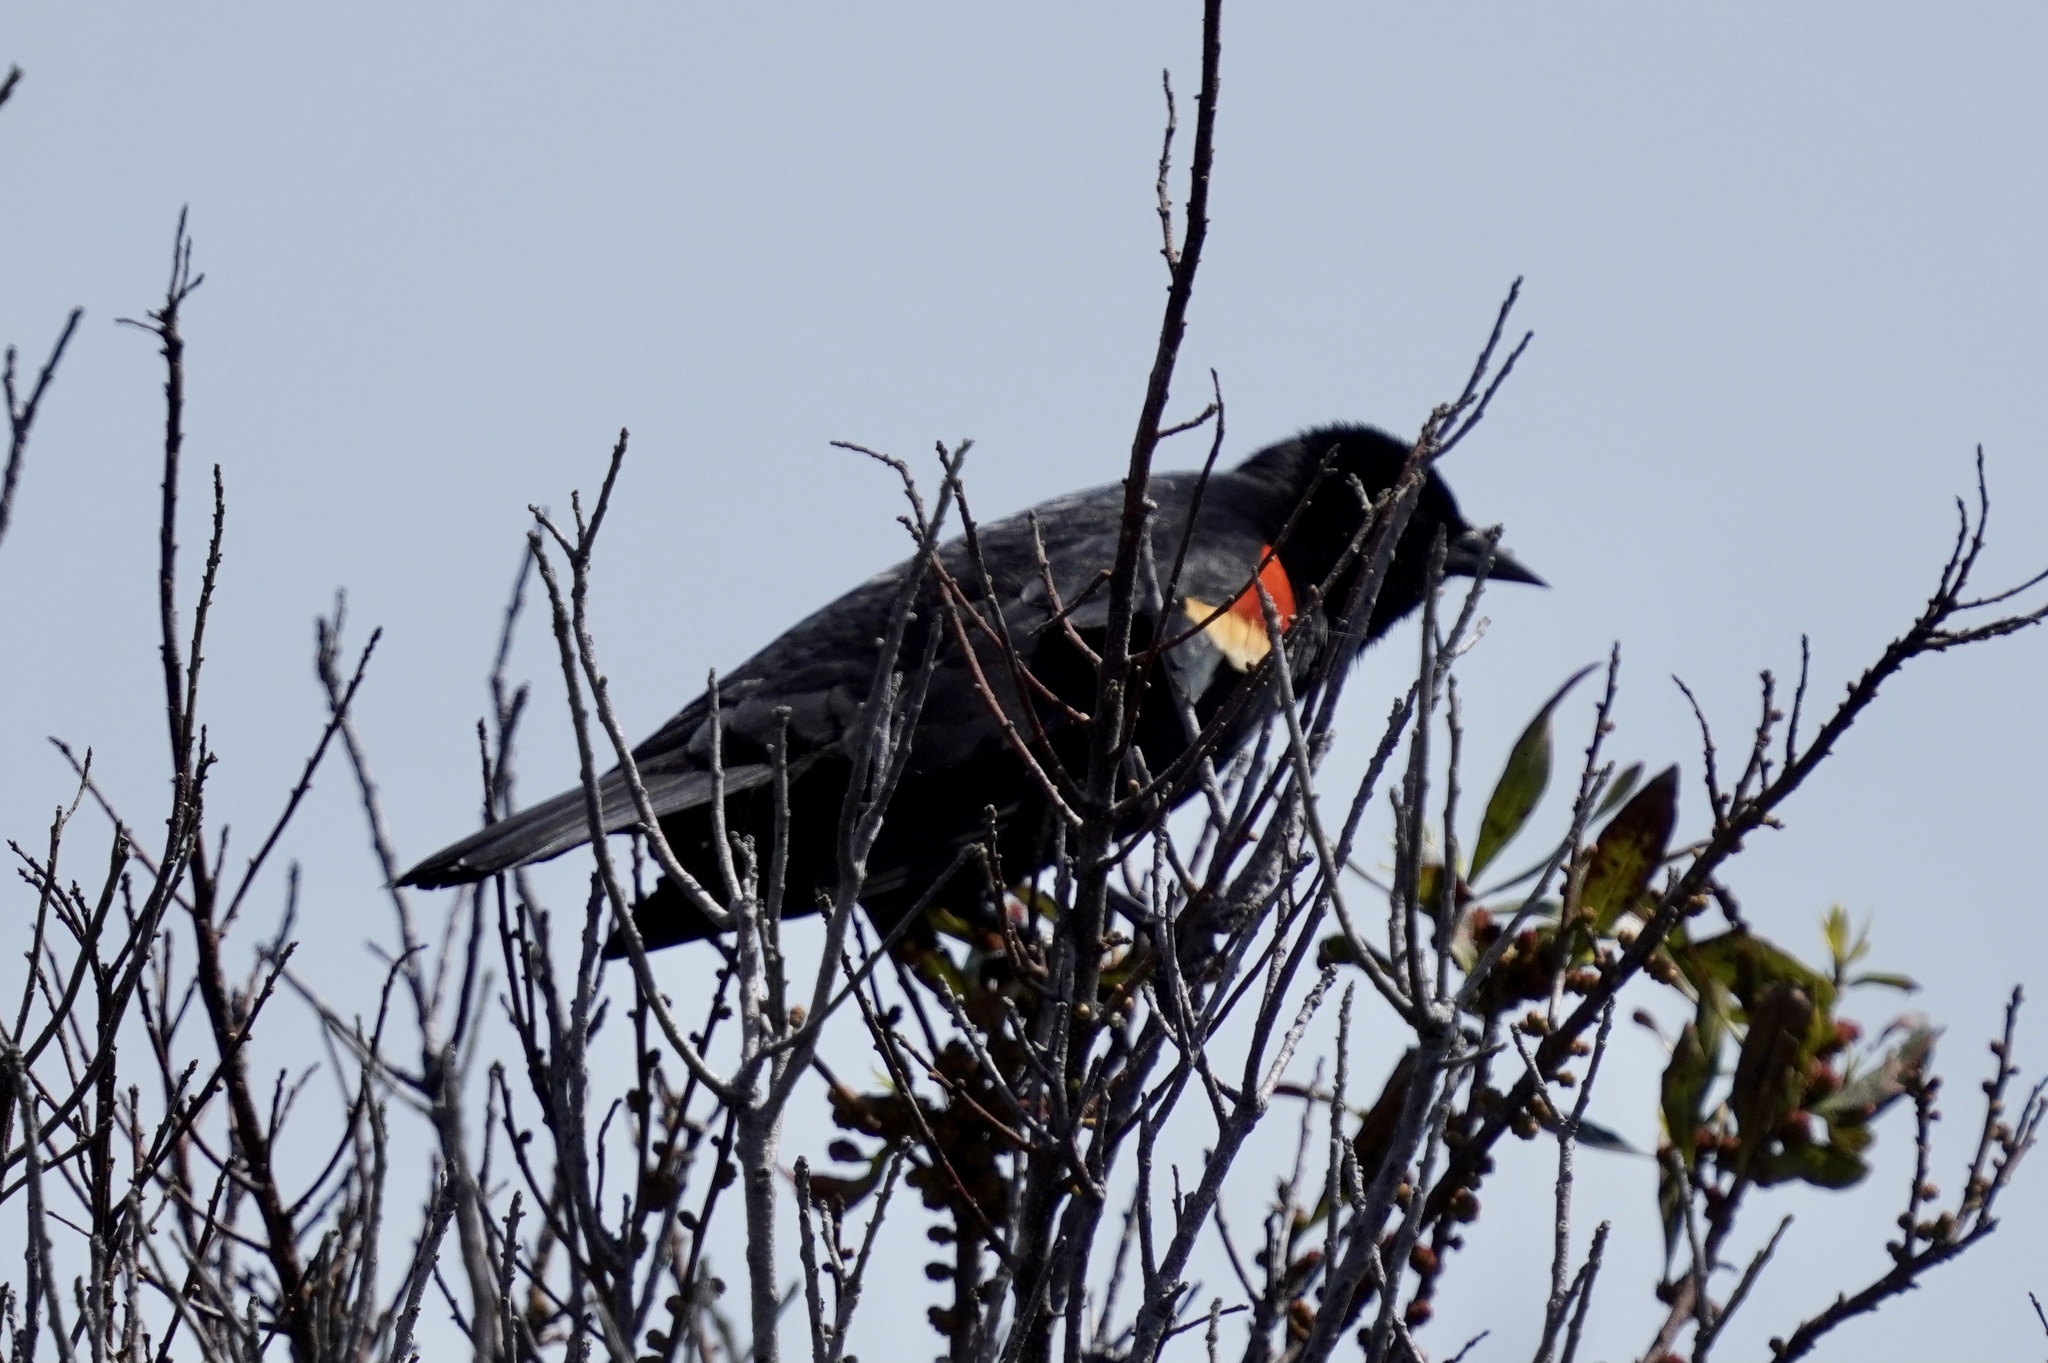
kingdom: Animalia
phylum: Chordata
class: Aves
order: Passeriformes
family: Icteridae
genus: Agelaius
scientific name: Agelaius phoeniceus
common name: Red-winged blackbird
